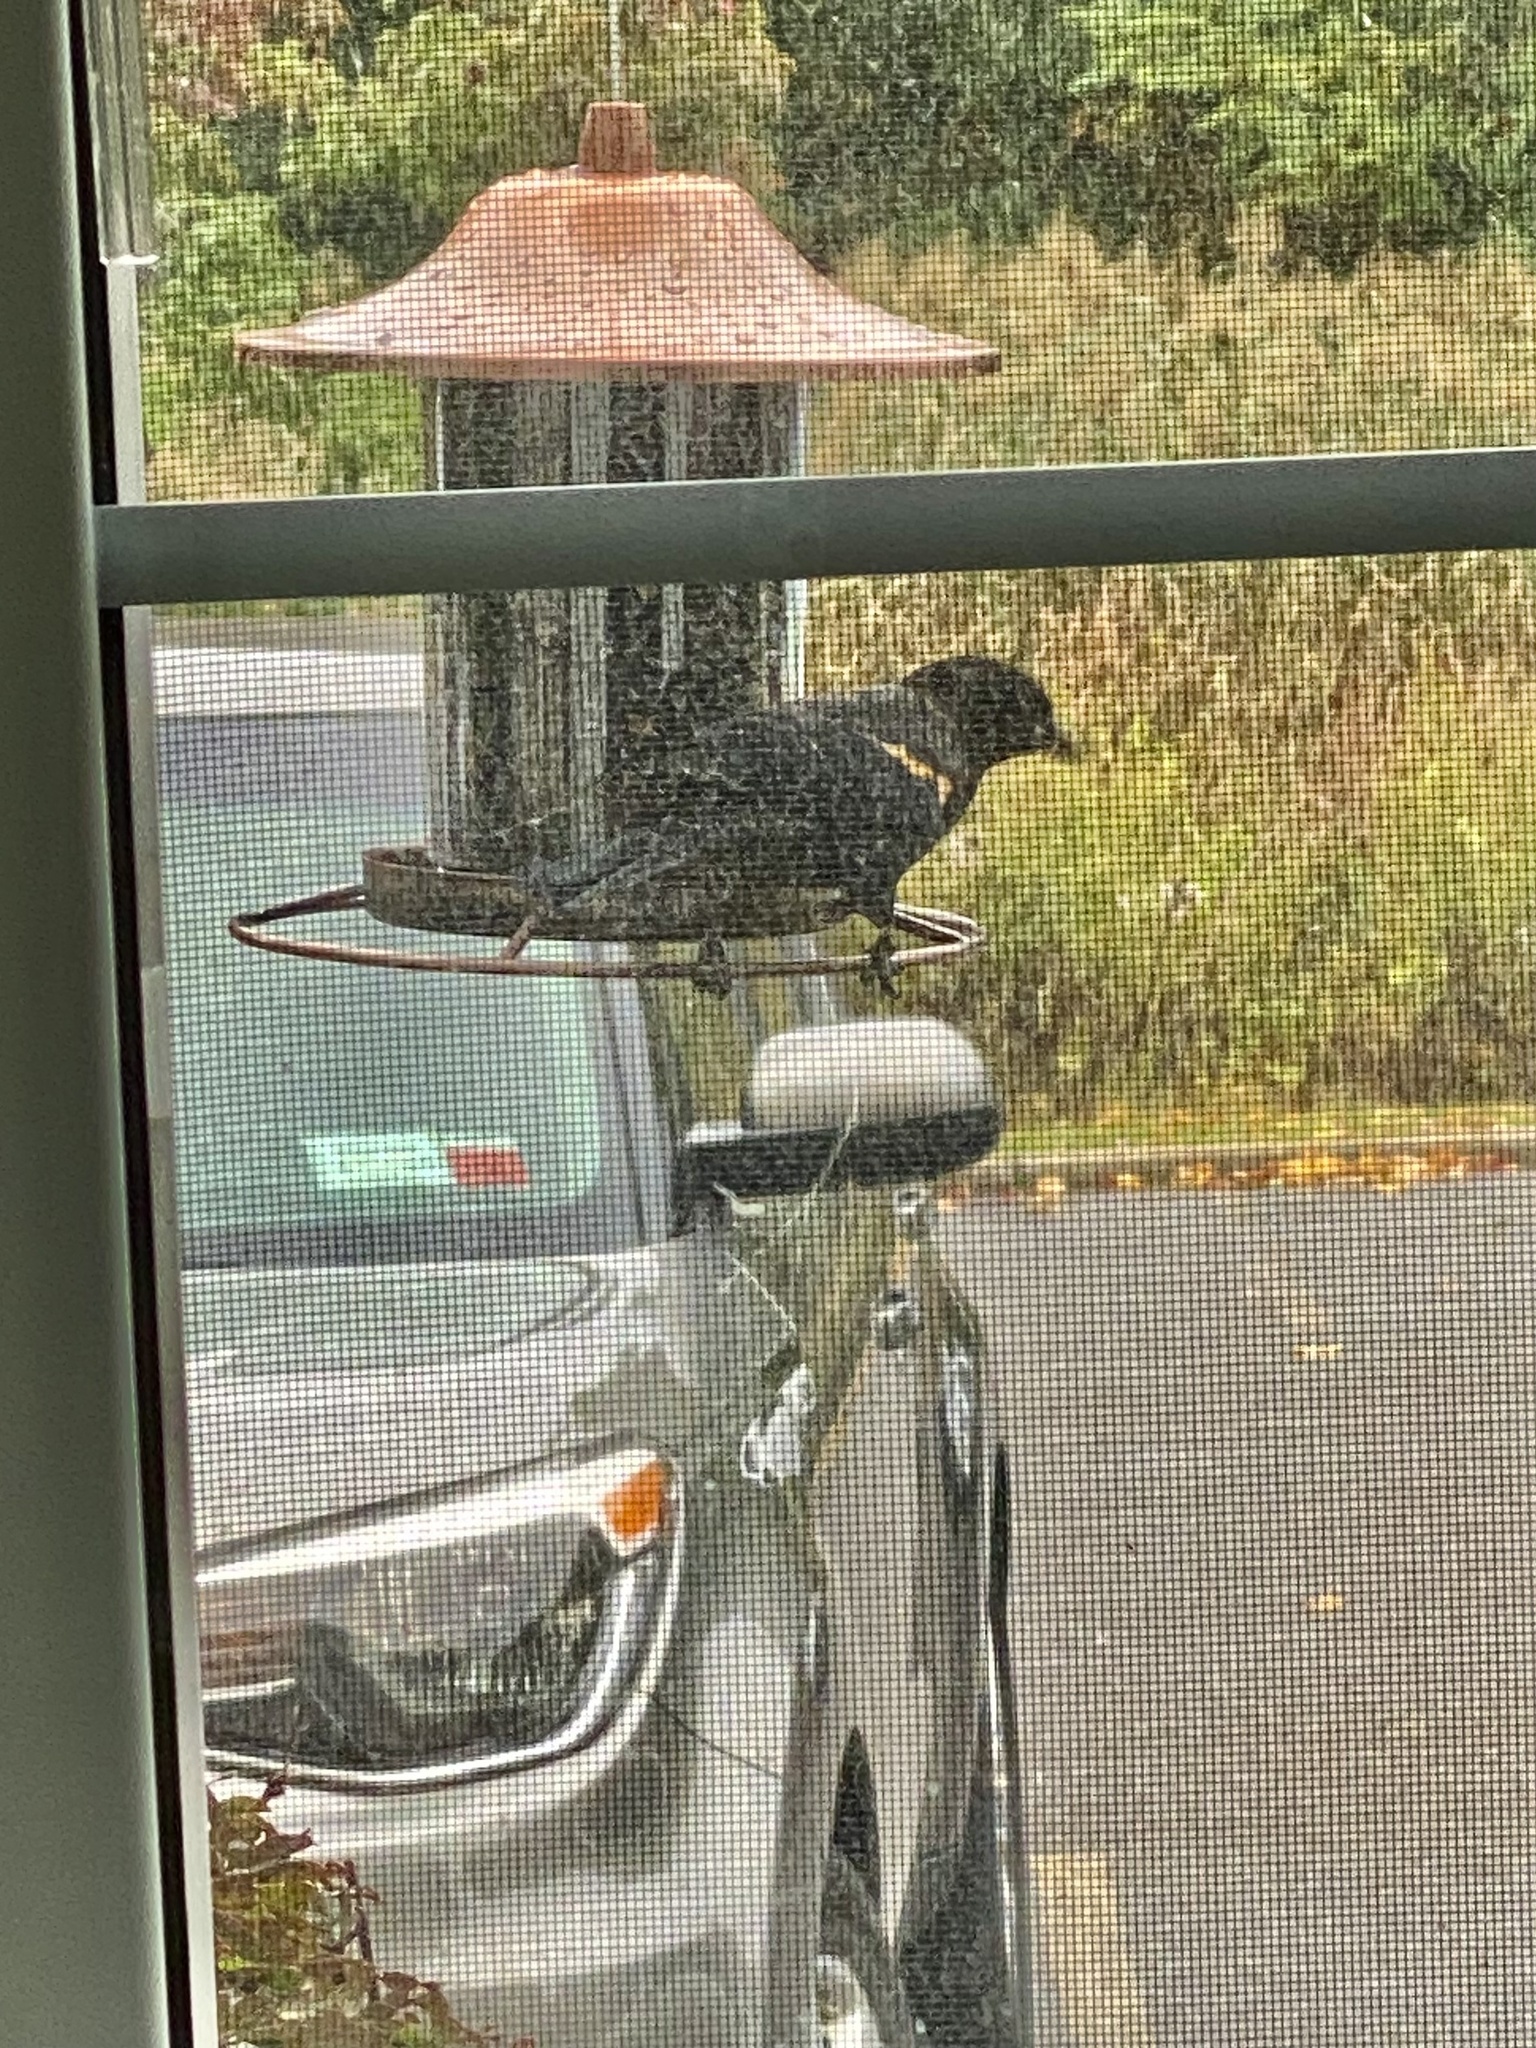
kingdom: Animalia
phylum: Chordata
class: Aves
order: Passeriformes
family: Icteridae
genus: Agelaius
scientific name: Agelaius phoeniceus
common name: Red-winged blackbird
